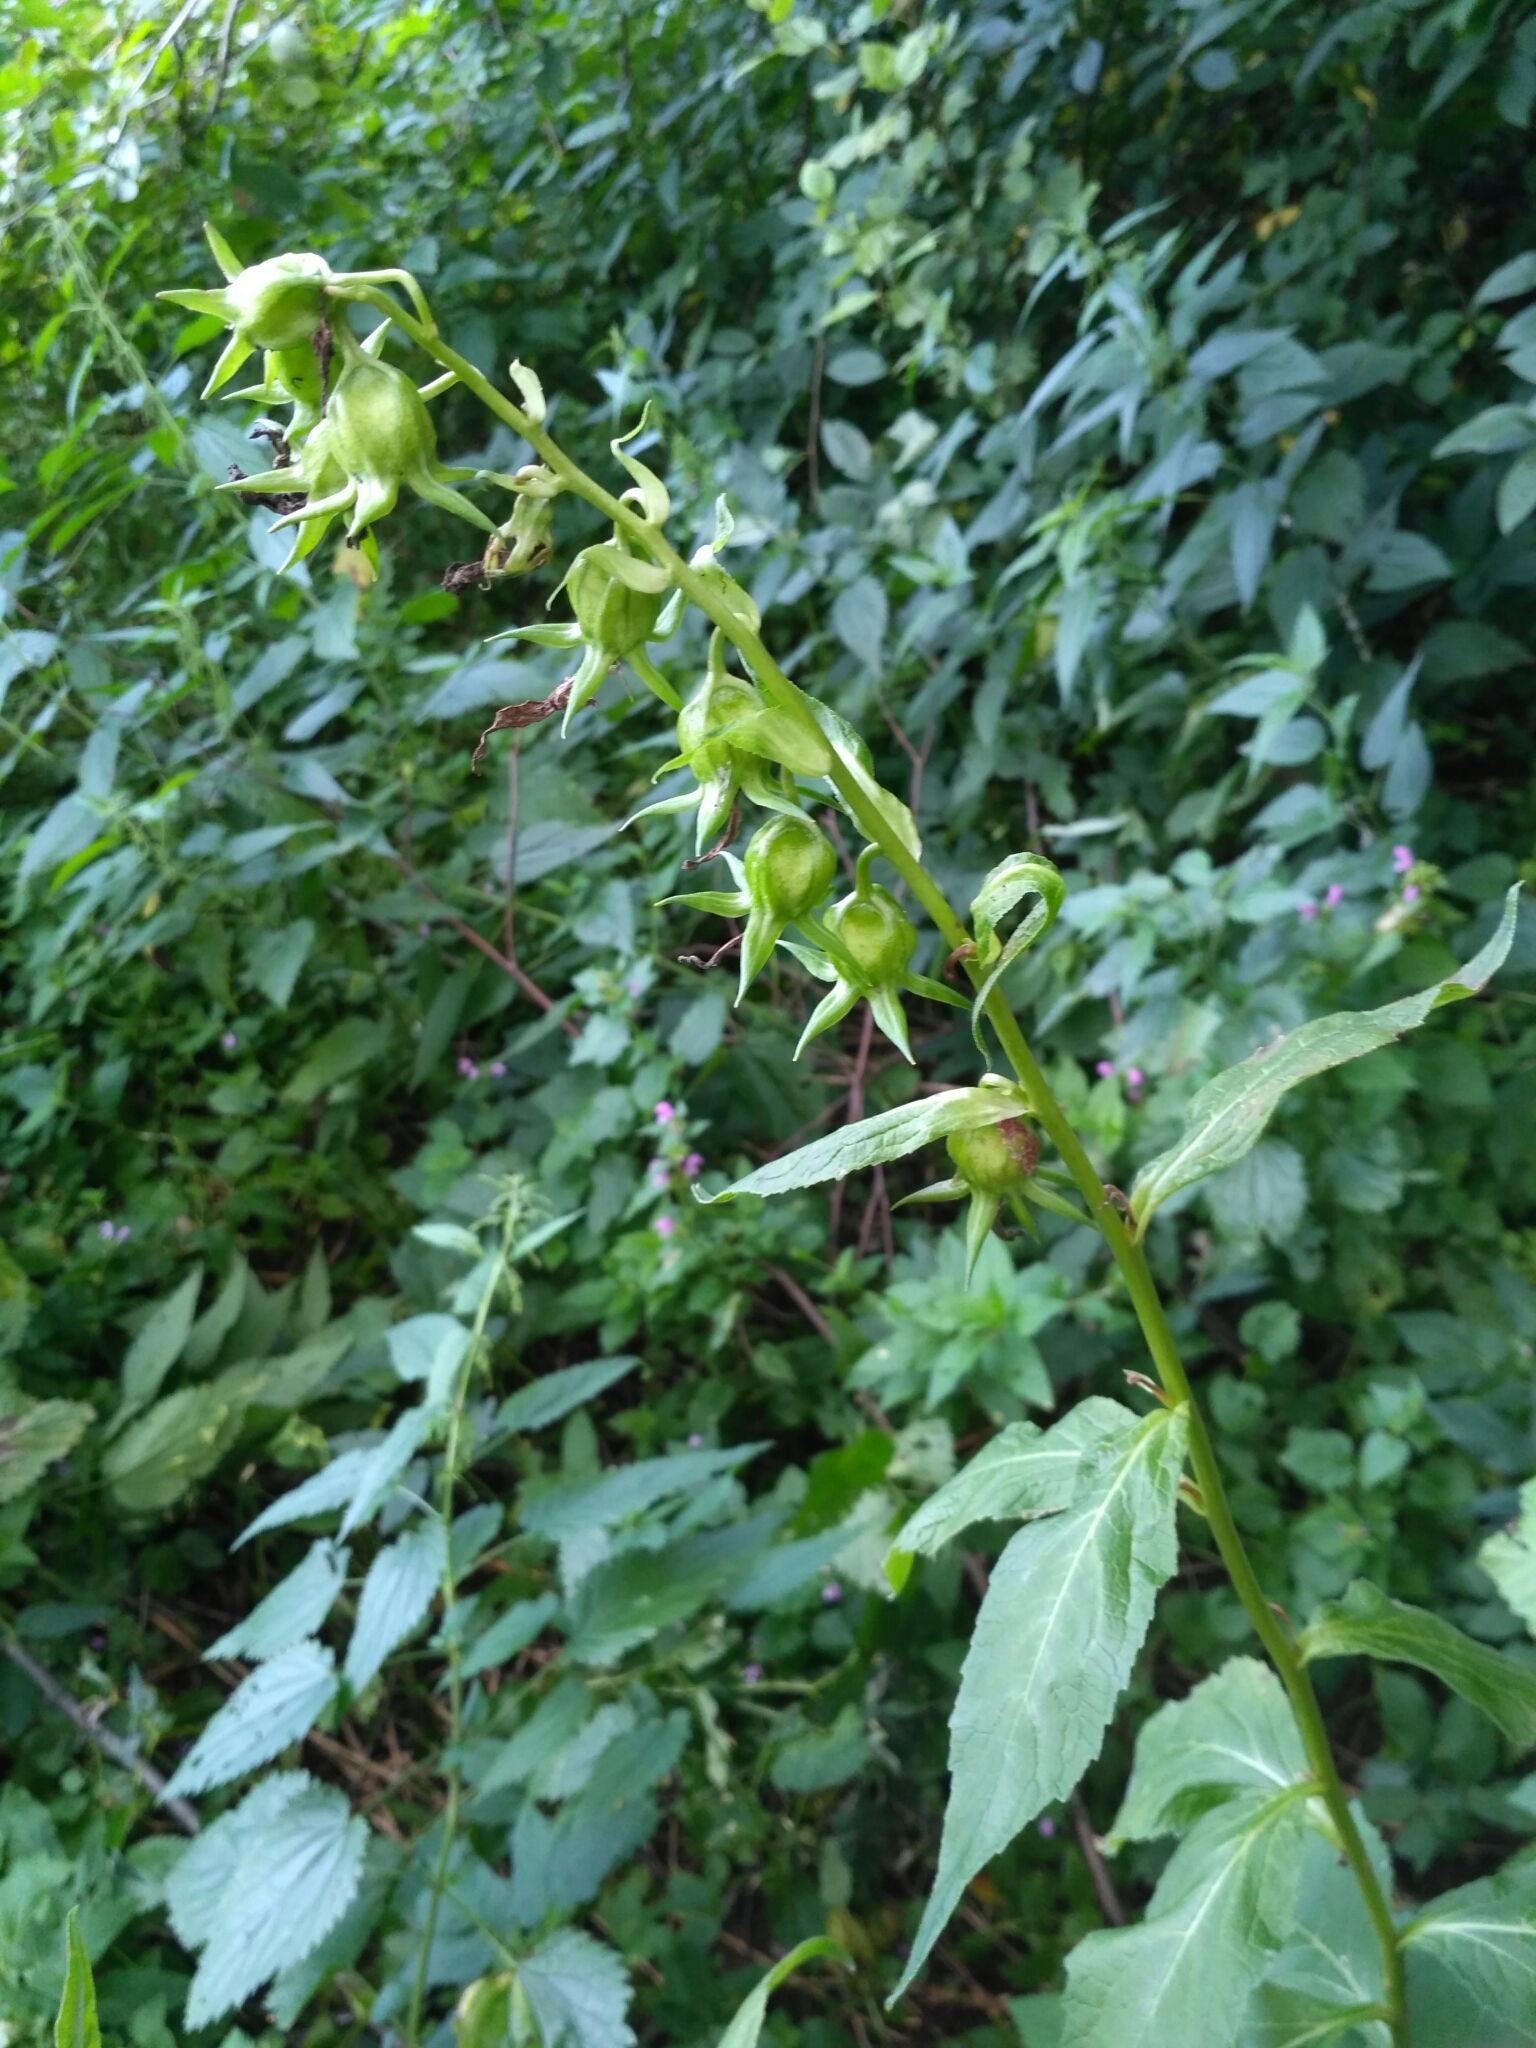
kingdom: Plantae
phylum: Tracheophyta
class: Magnoliopsida
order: Asterales
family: Campanulaceae
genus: Campanula
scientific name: Campanula latifolia
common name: Giant bellflower
